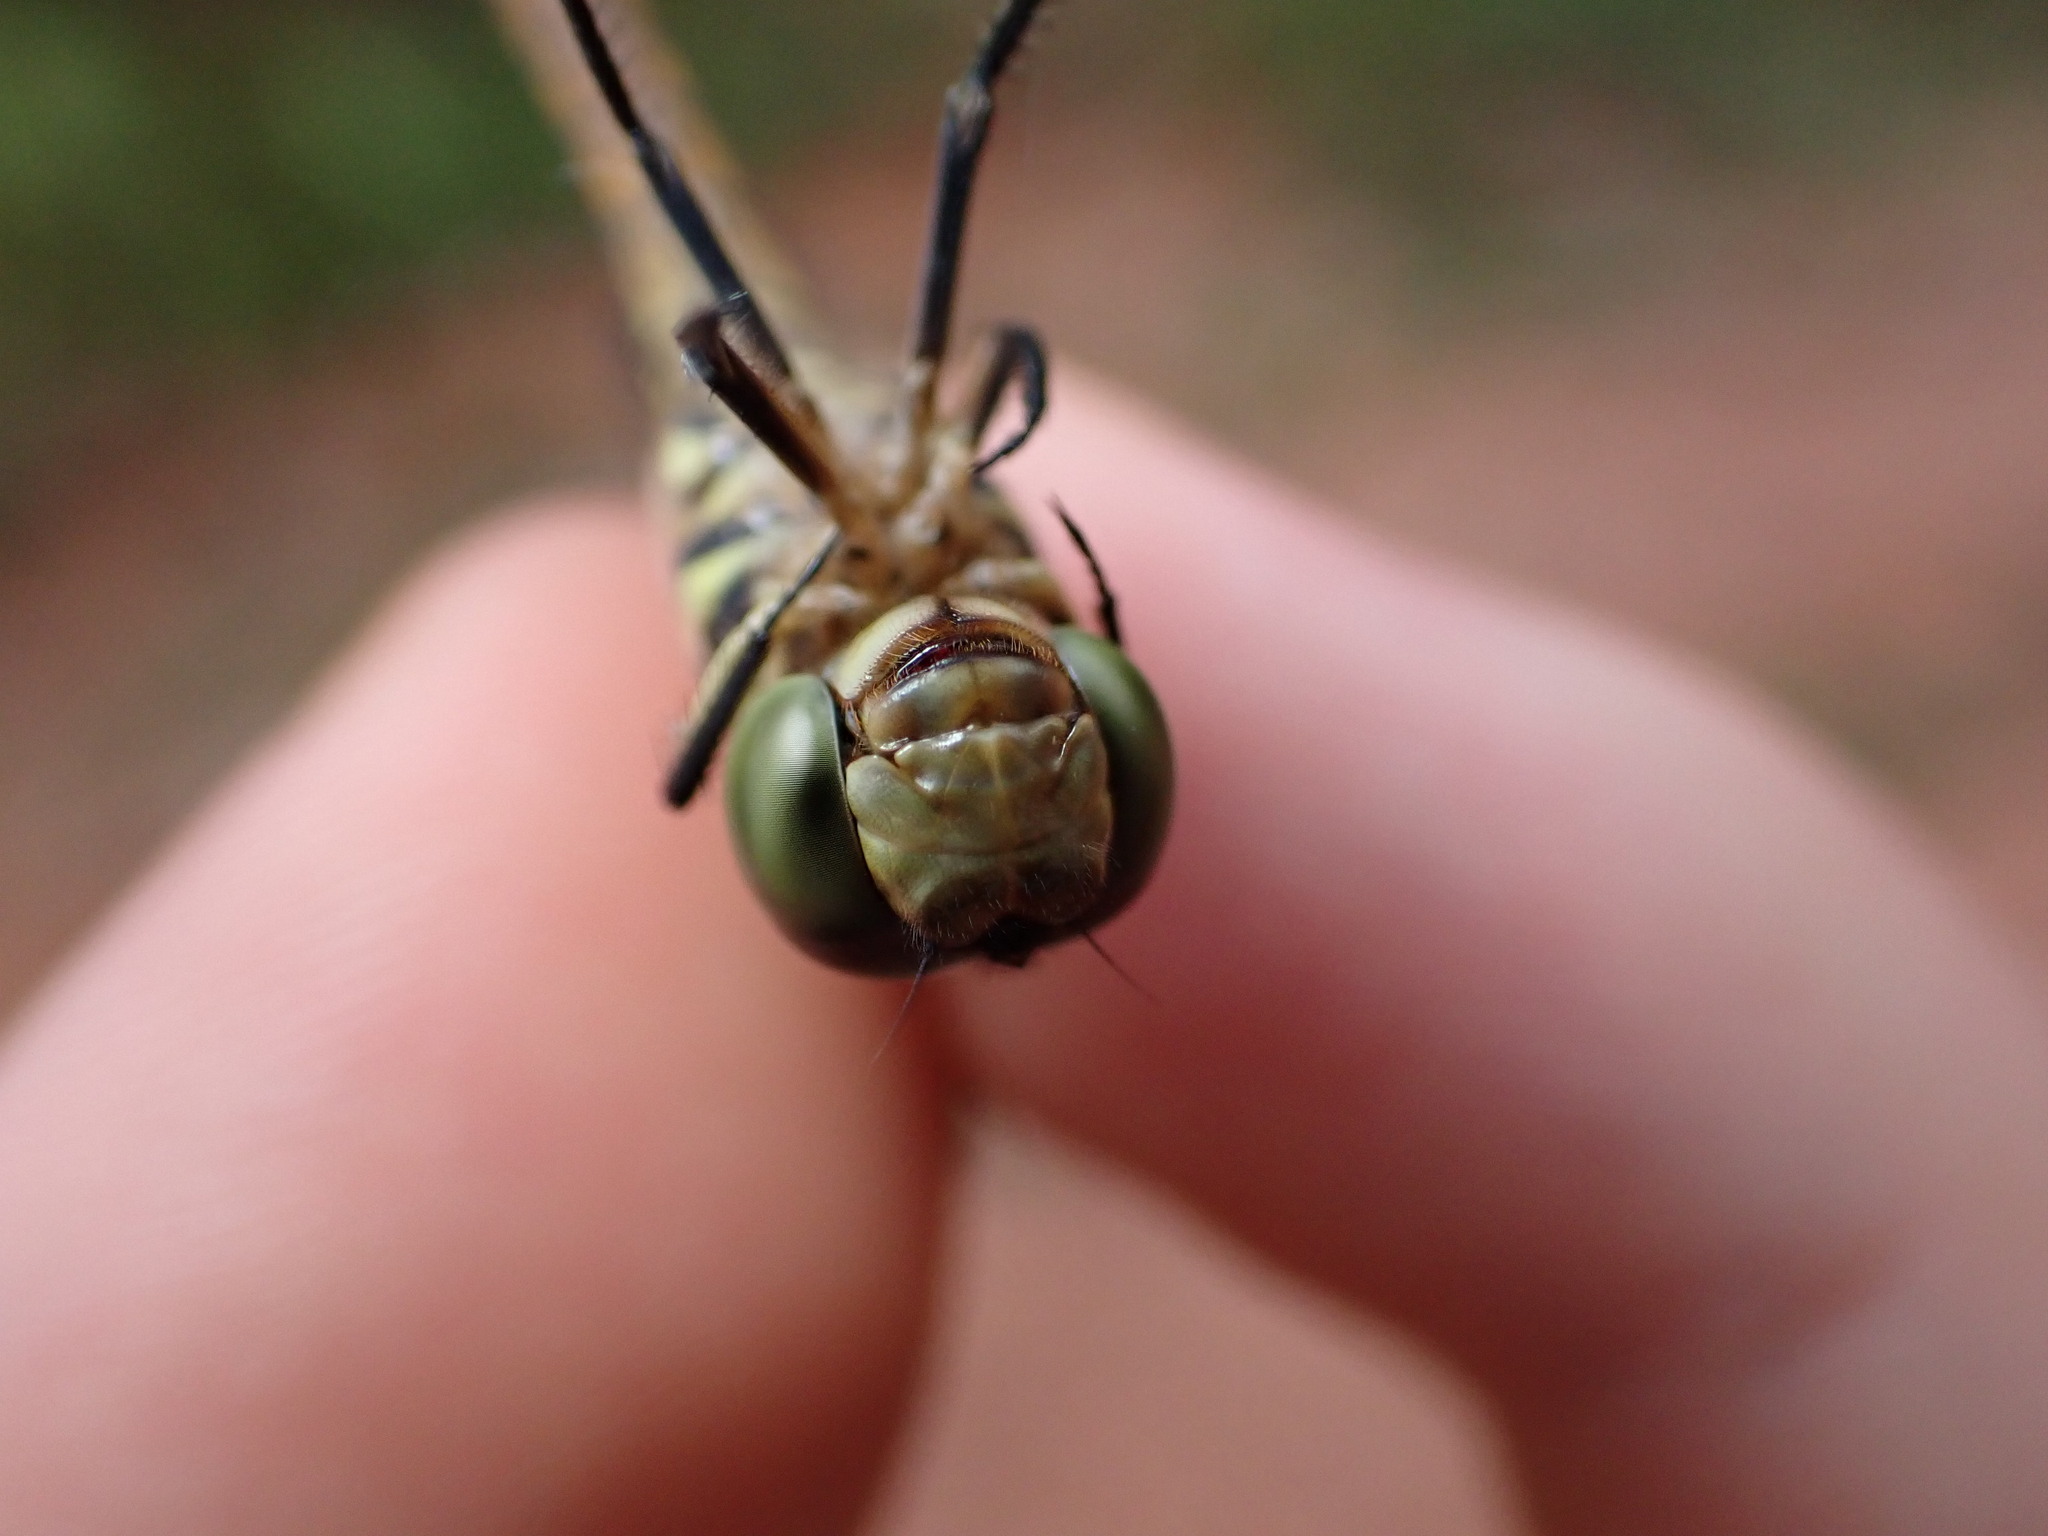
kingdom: Animalia
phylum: Arthropoda
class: Insecta
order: Odonata
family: Libellulidae
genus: Potamarcha
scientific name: Potamarcha congener
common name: Blue chaser
